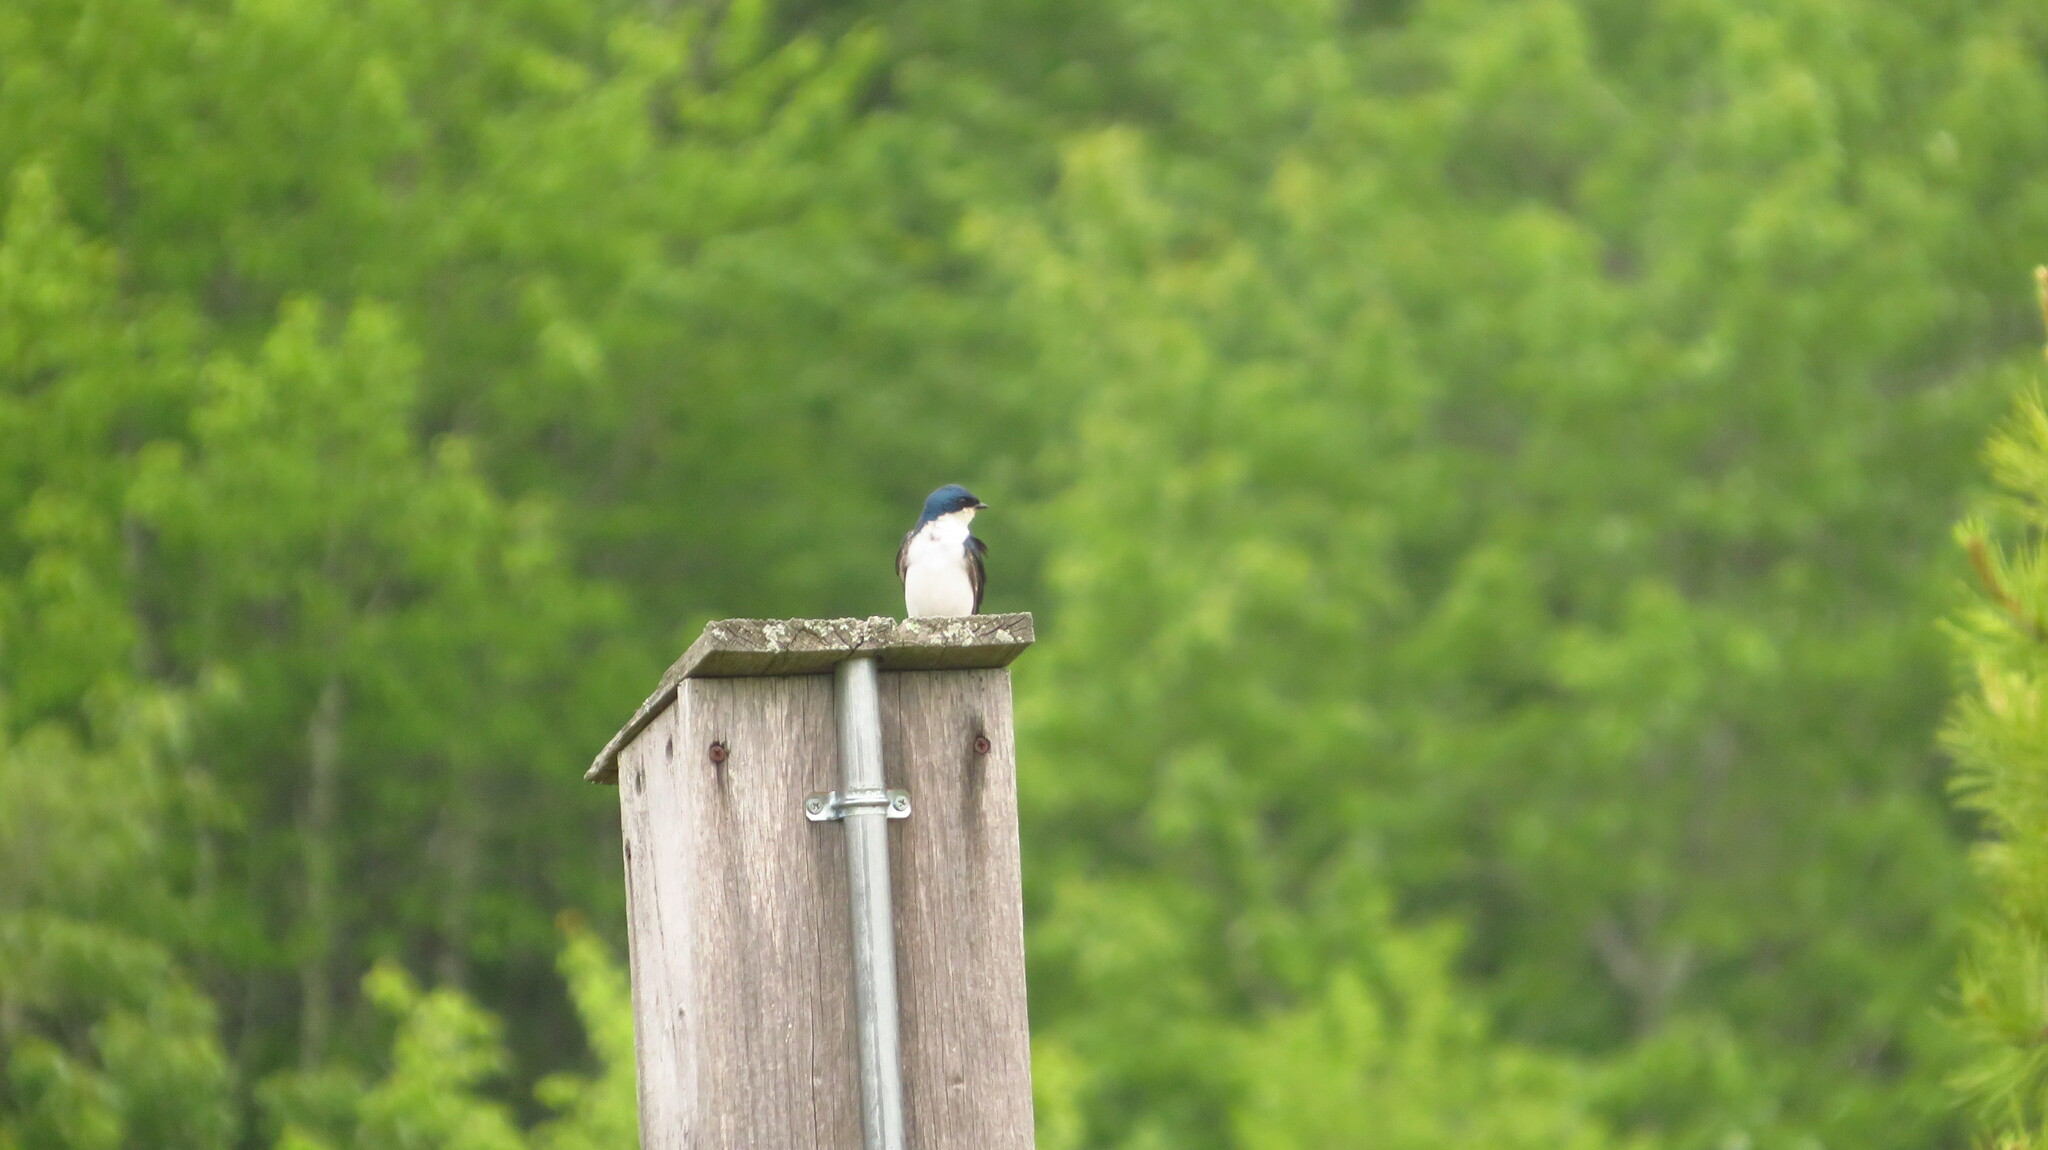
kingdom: Animalia
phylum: Chordata
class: Aves
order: Passeriformes
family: Hirundinidae
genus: Tachycineta
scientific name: Tachycineta bicolor
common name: Tree swallow
